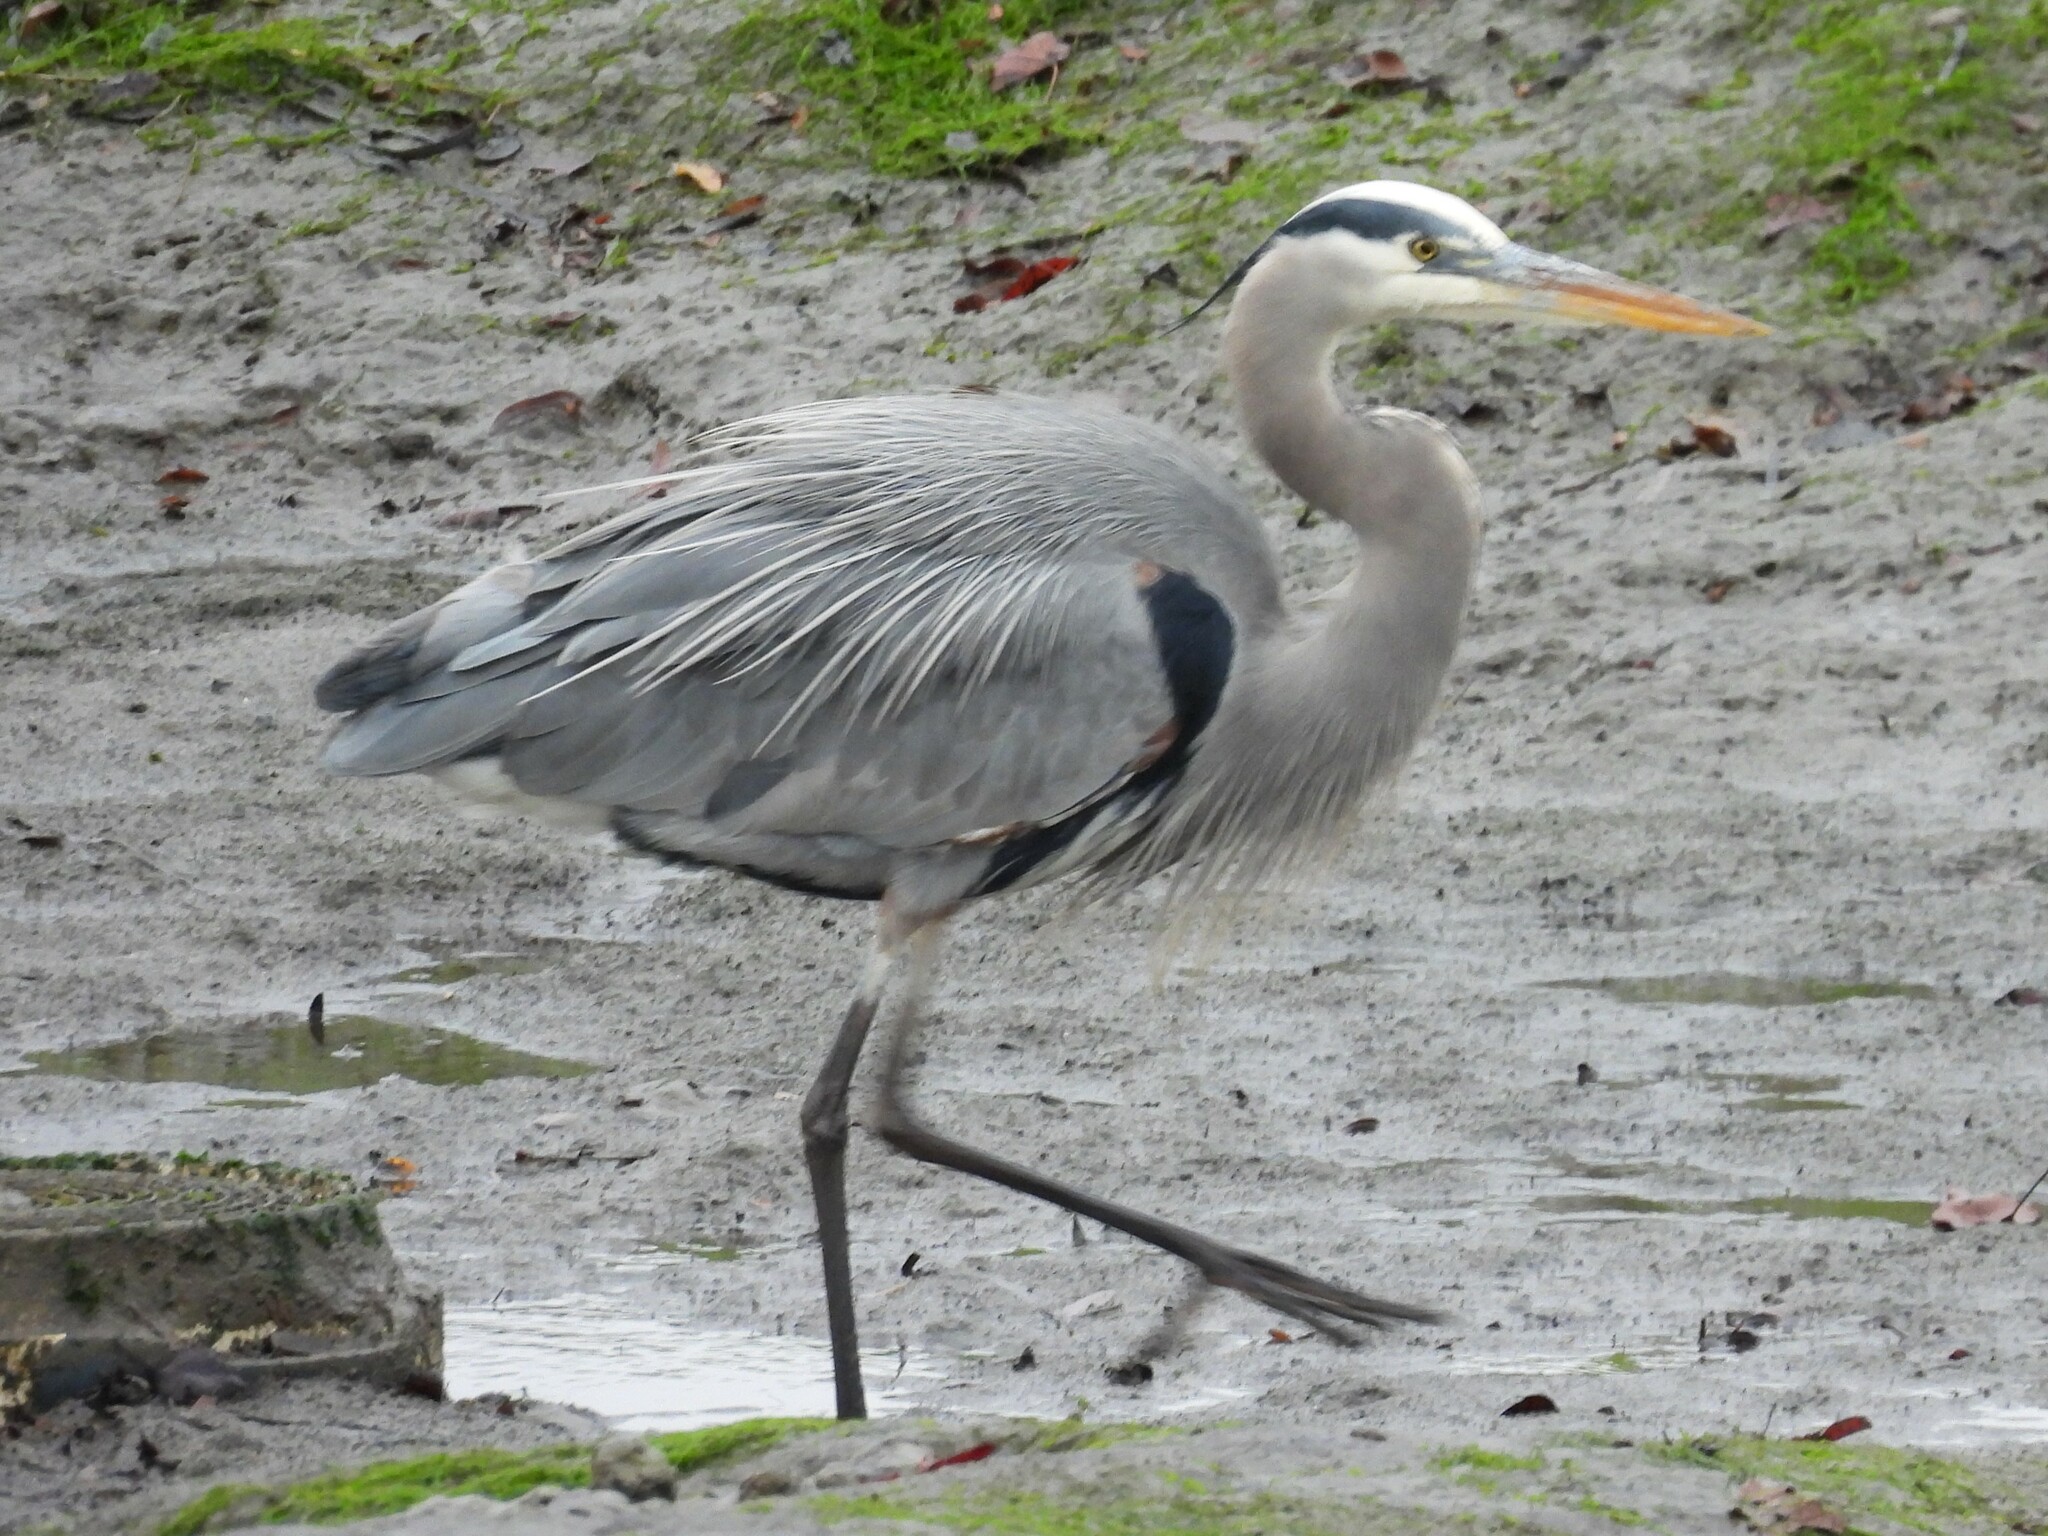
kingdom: Animalia
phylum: Chordata
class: Aves
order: Pelecaniformes
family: Ardeidae
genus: Ardea
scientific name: Ardea herodias
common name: Great blue heron
